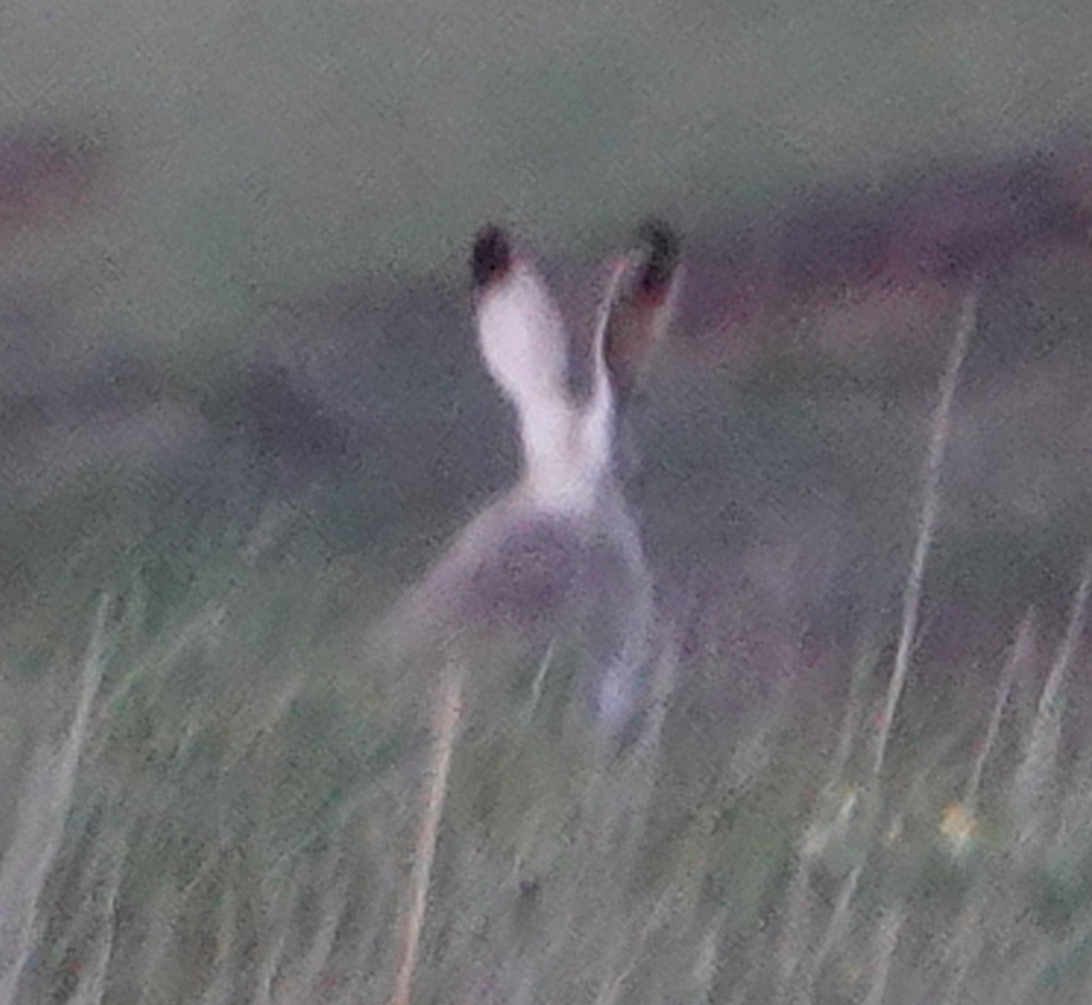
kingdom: Animalia
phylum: Chordata
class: Mammalia
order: Lagomorpha
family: Leporidae
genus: Lepus
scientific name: Lepus townsendii
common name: White-tailed jackrabbit
